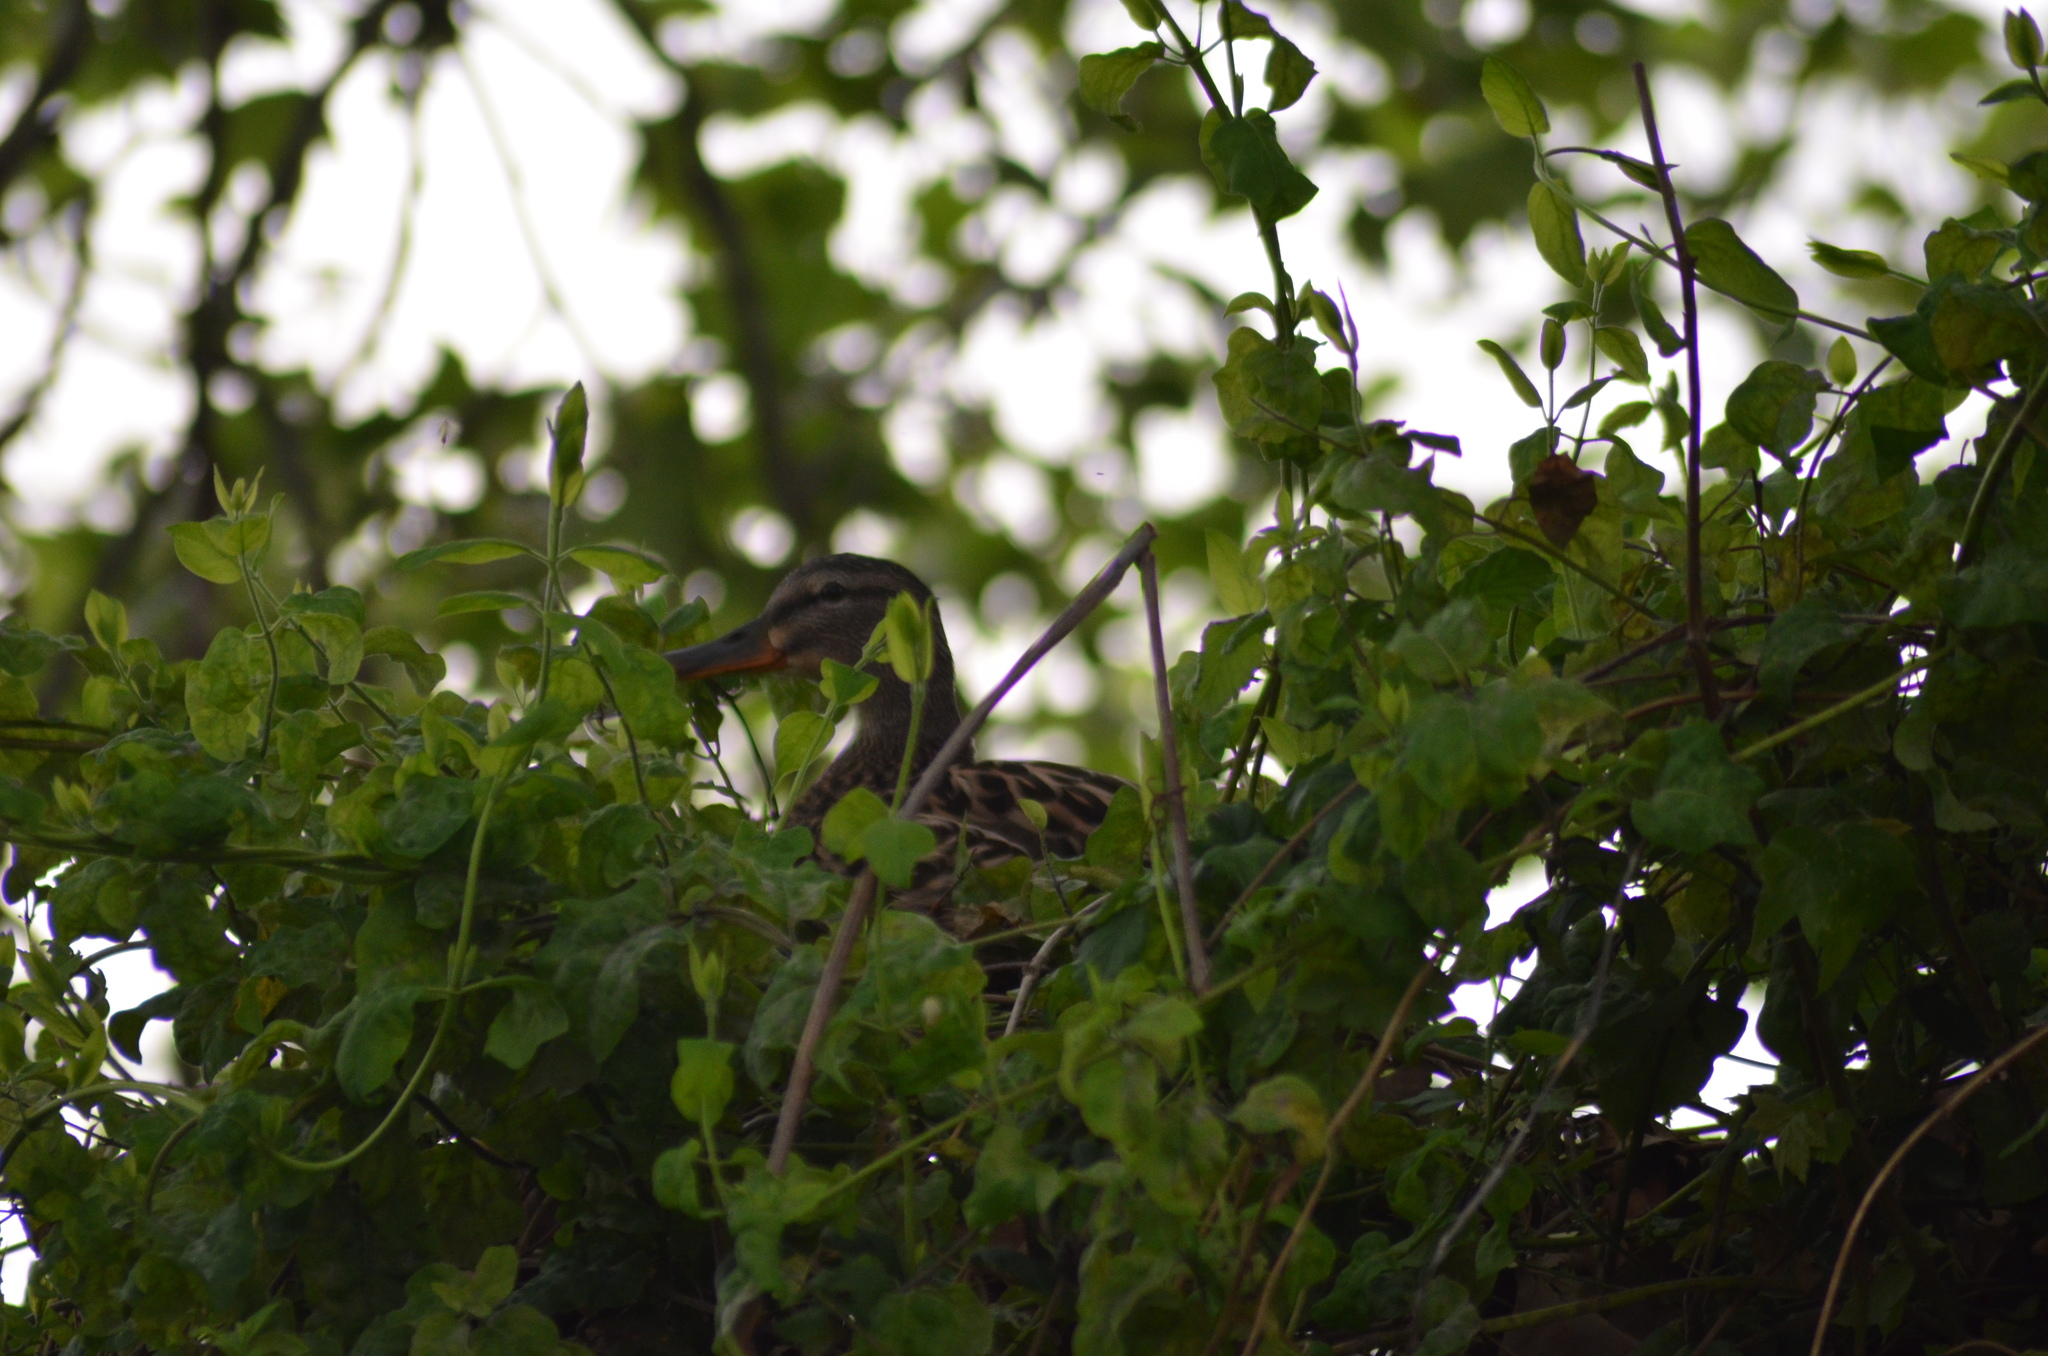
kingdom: Animalia
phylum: Chordata
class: Aves
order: Anseriformes
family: Anatidae
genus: Anas
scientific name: Anas platyrhynchos
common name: Mallard
